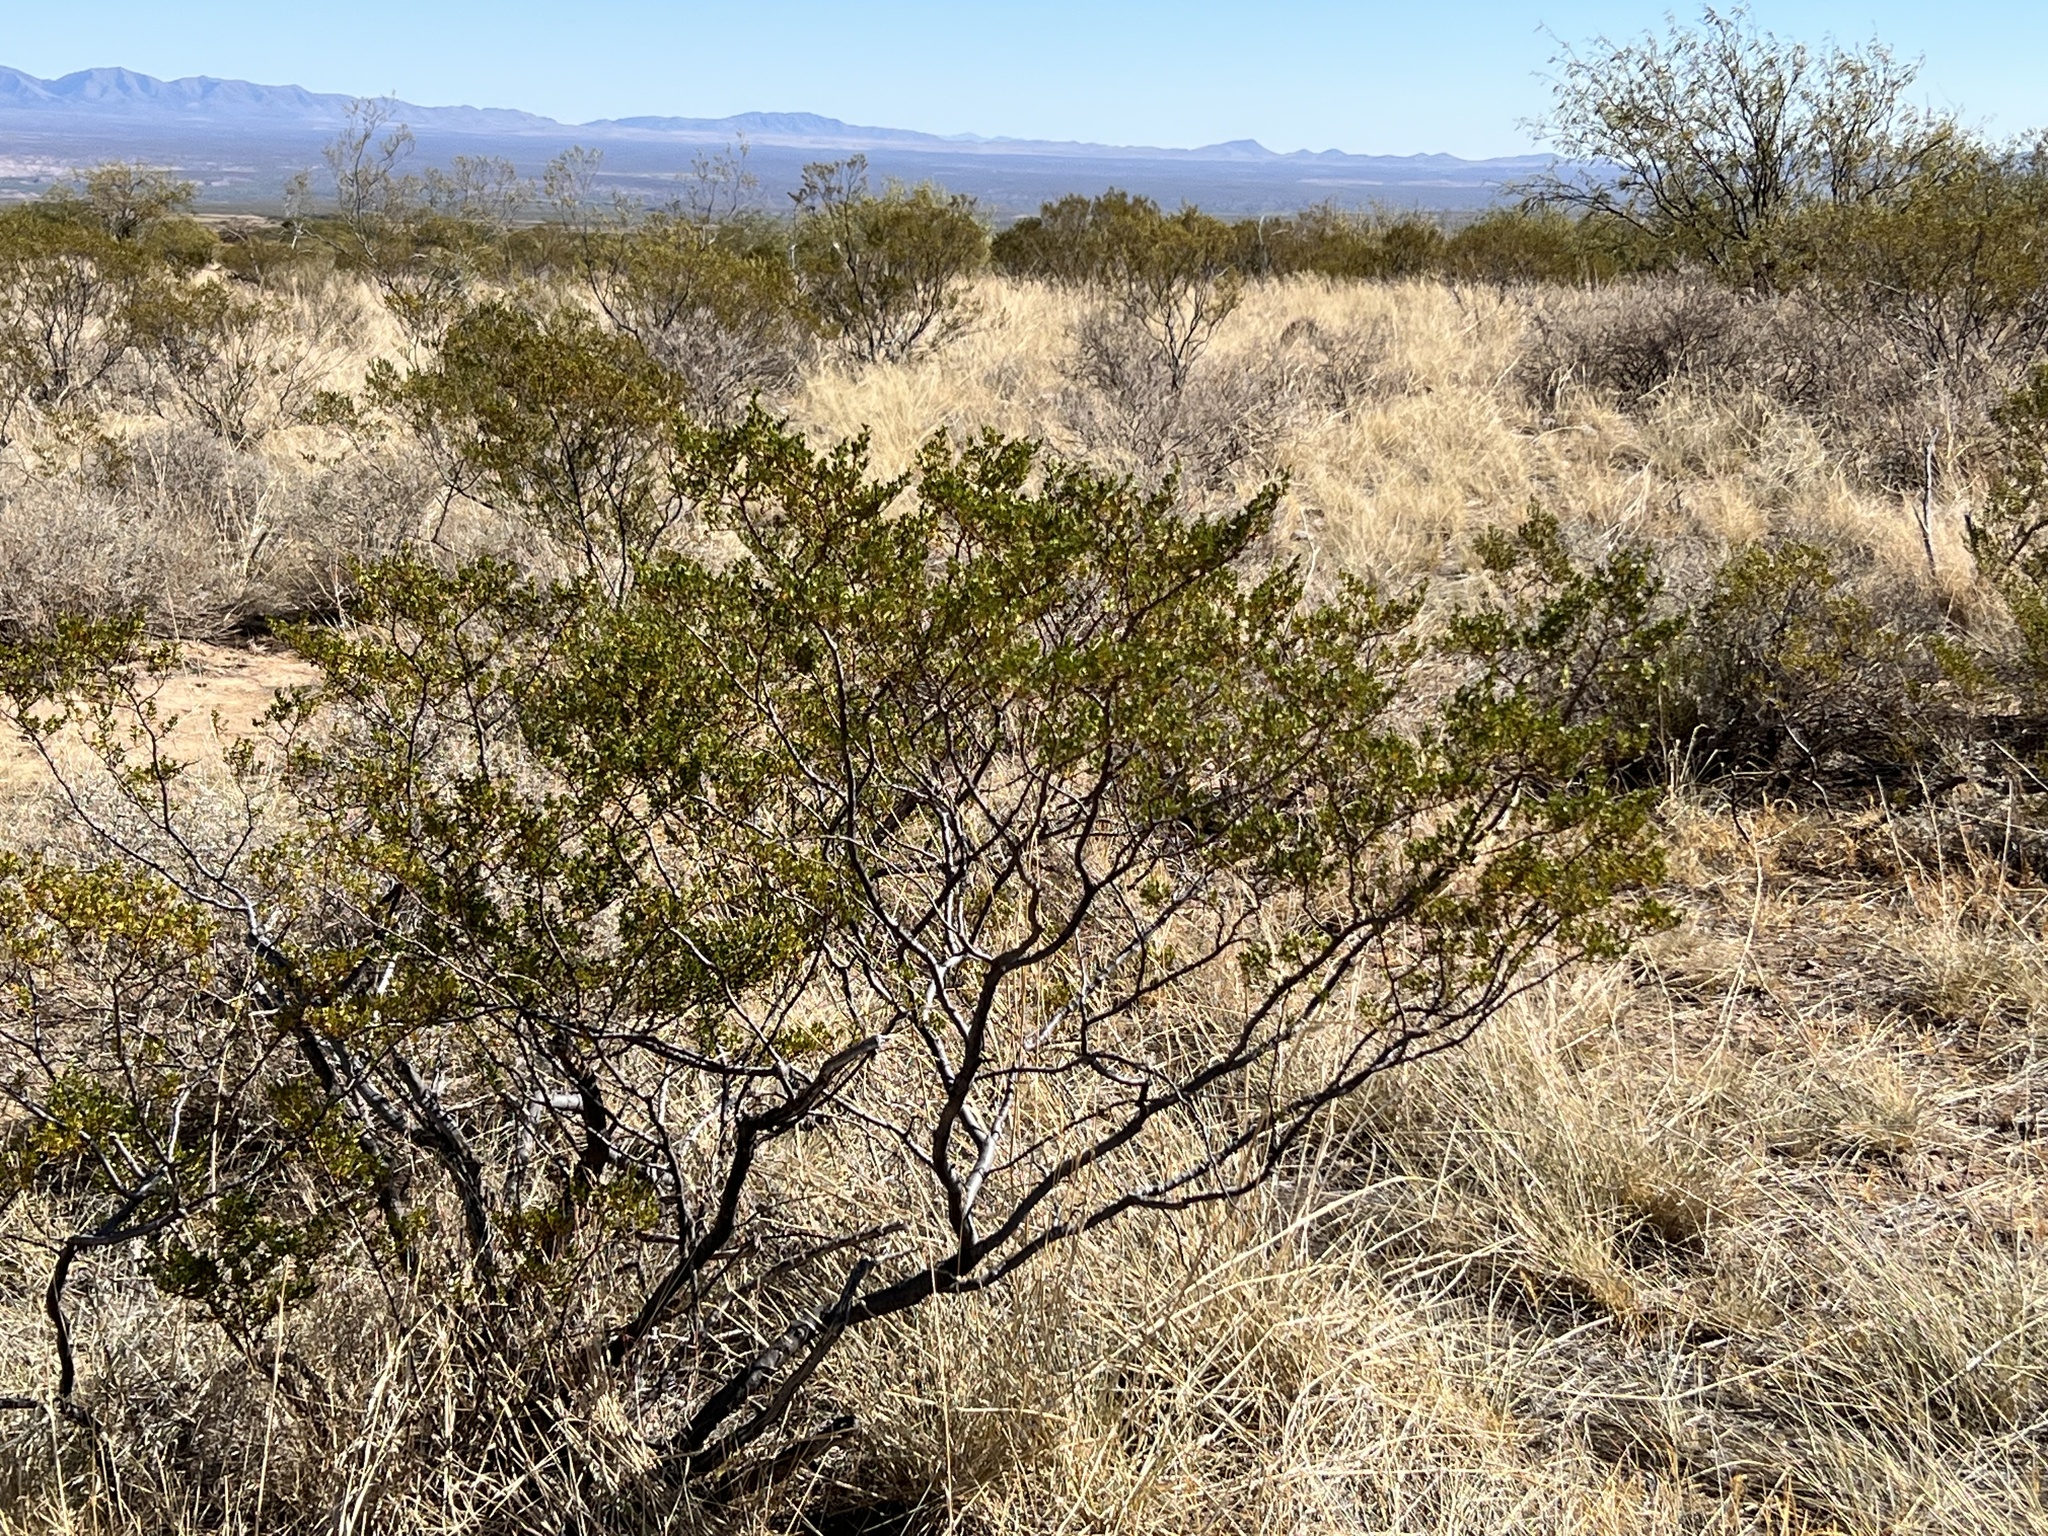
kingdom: Plantae
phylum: Tracheophyta
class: Magnoliopsida
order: Zygophyllales
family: Zygophyllaceae
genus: Larrea
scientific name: Larrea tridentata
